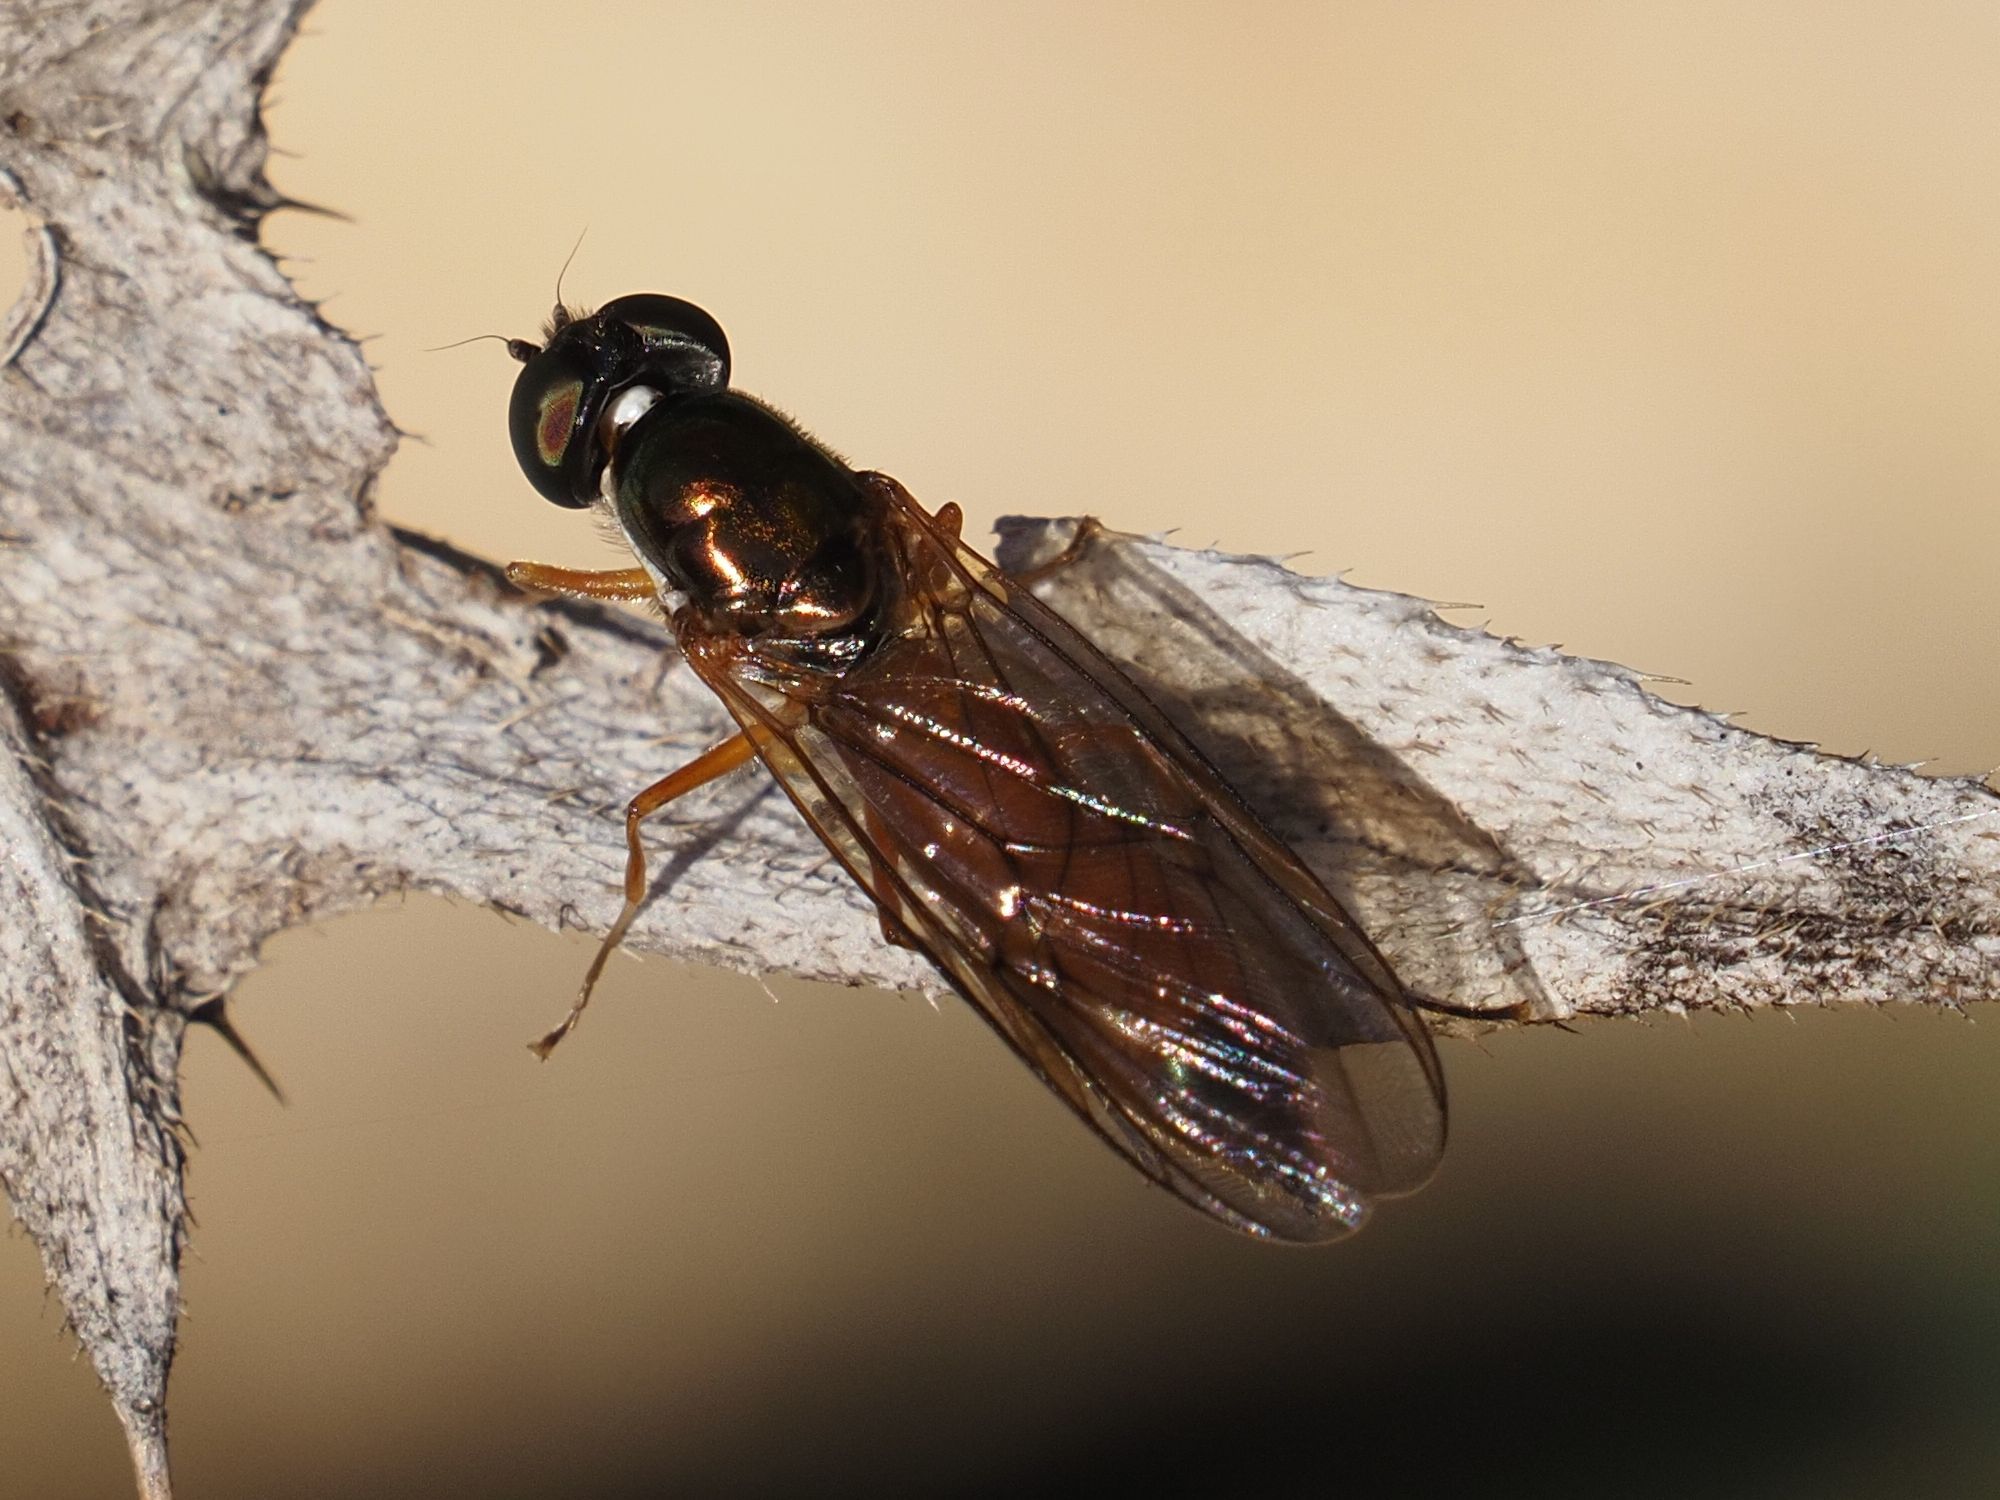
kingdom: Animalia
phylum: Arthropoda
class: Insecta
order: Diptera
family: Stratiomyidae
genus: Sargus
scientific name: Sargus bipunctatus
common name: Twin-spot centurion
